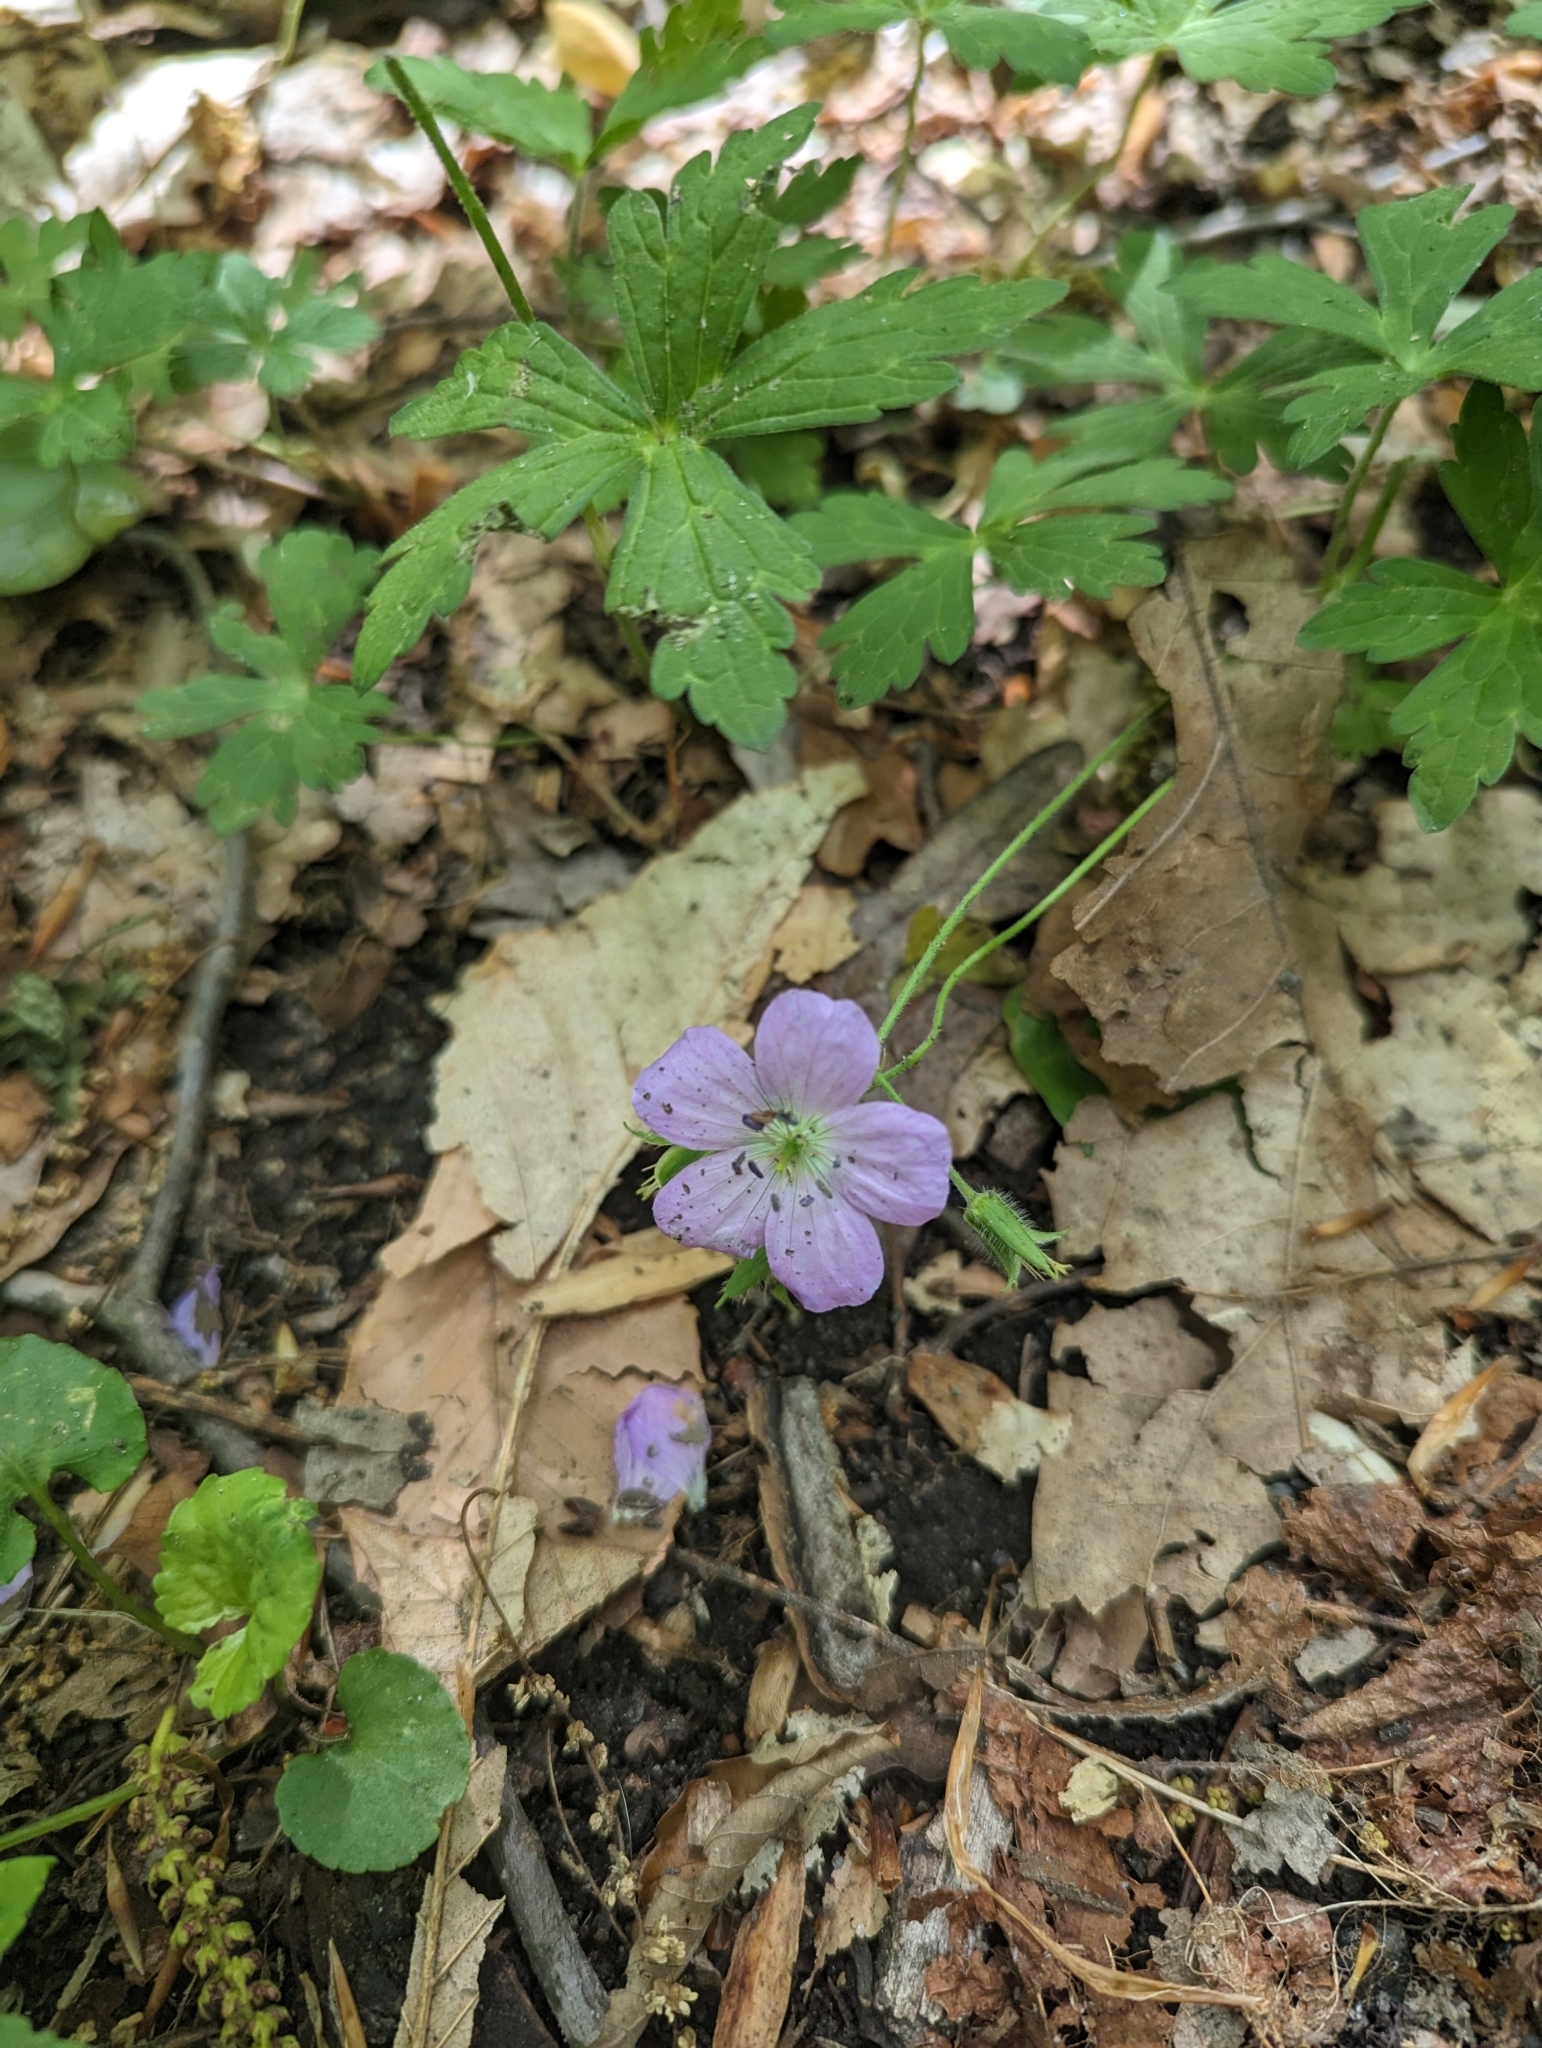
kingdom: Plantae
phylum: Tracheophyta
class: Magnoliopsida
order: Geraniales
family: Geraniaceae
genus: Geranium
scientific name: Geranium maculatum
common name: Spotted geranium
